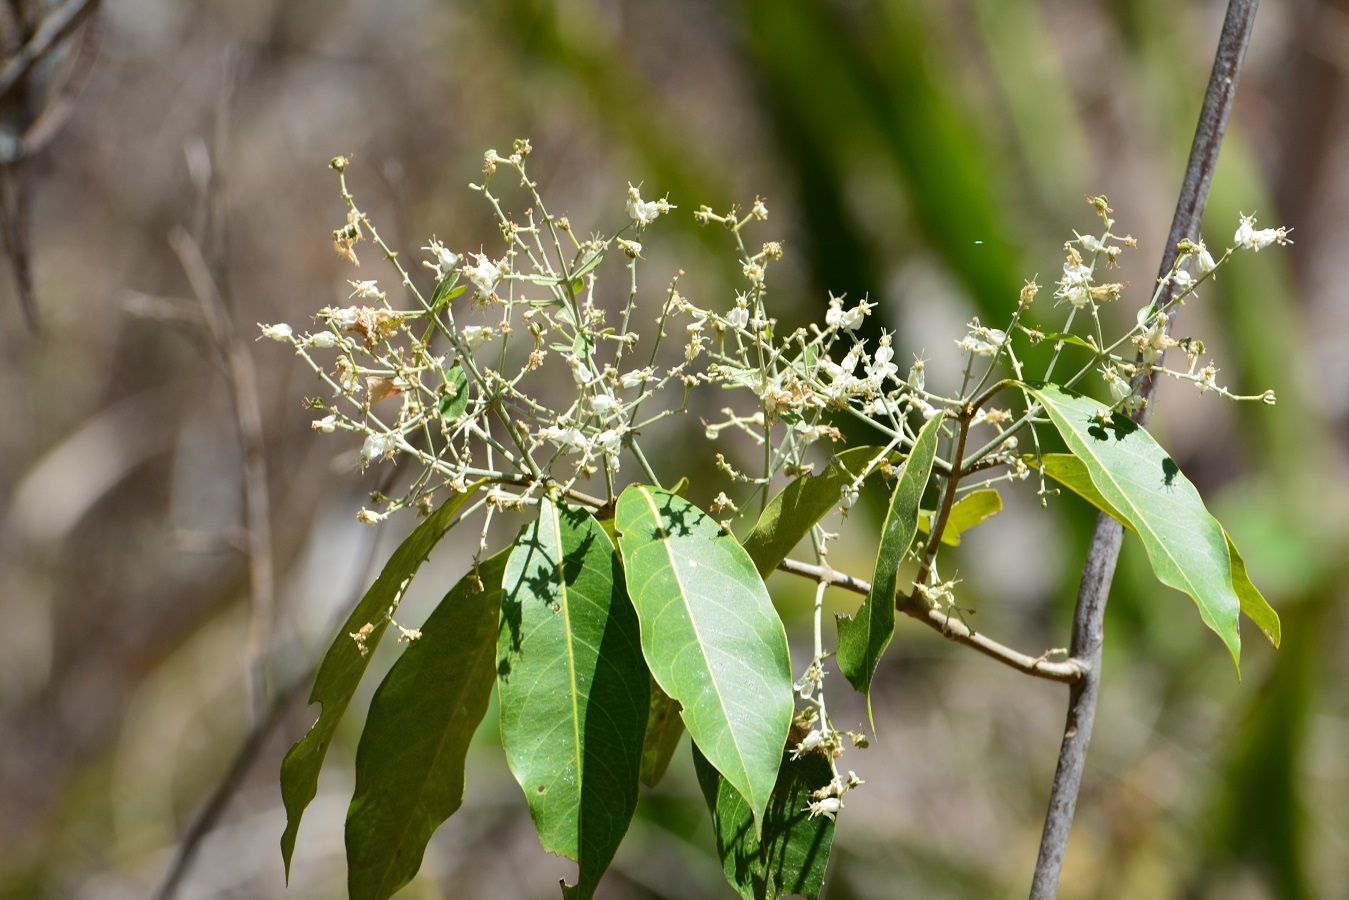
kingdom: Plantae
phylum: Tracheophyta
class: Magnoliopsida
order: Malpighiales
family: Malpighiaceae
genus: Psychopterys
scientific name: Psychopterys multiflora
